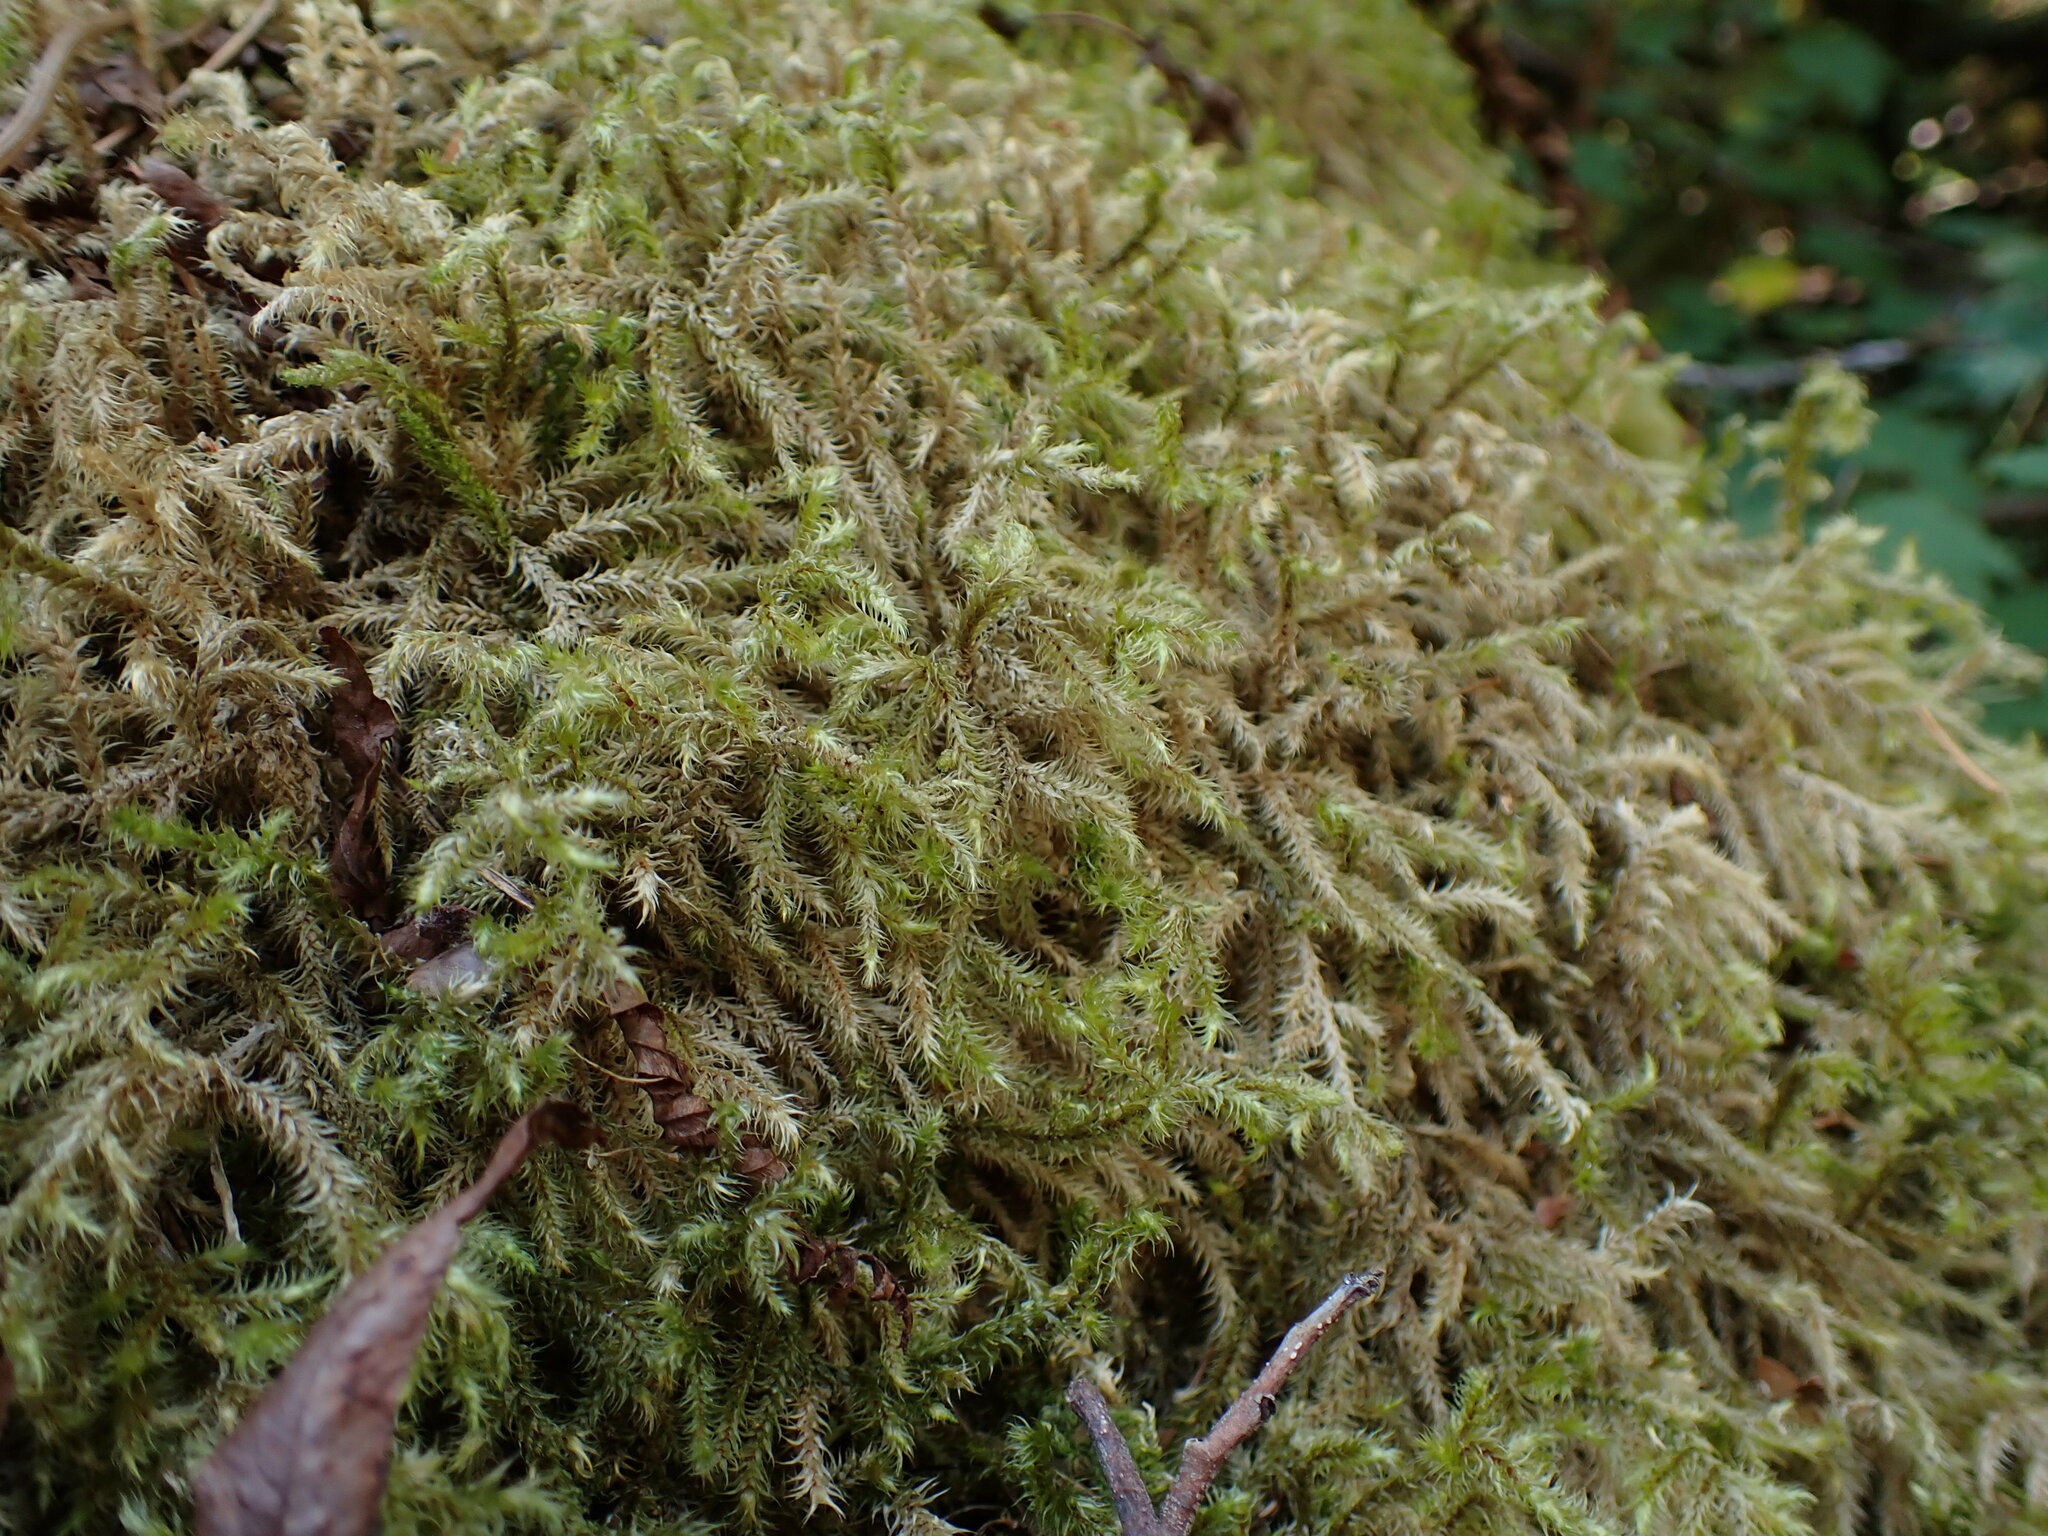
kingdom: Plantae
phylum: Bryophyta
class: Bryopsida
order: Hypnales
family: Hylocomiaceae
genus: Rhytidiadelphus
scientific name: Rhytidiadelphus loreus
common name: Lanky moss
